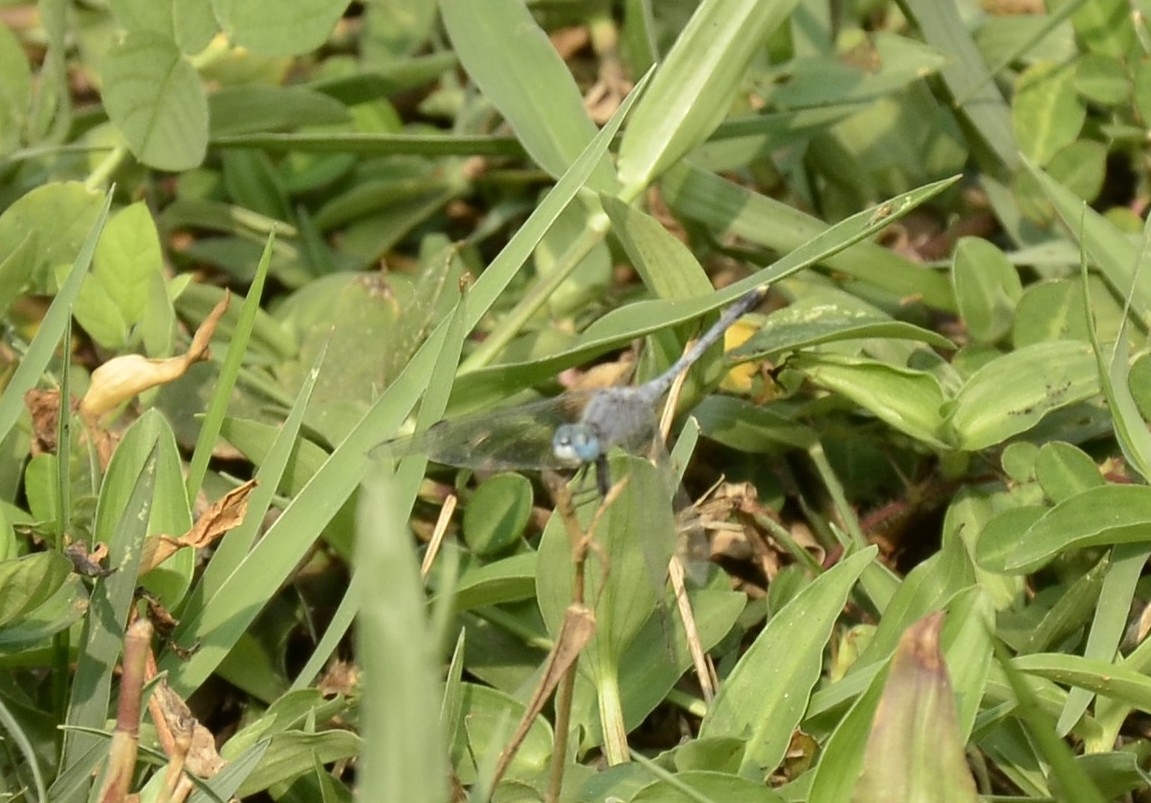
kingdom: Animalia
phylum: Arthropoda
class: Insecta
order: Odonata
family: Libellulidae
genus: Diplacodes
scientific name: Diplacodes trivialis
